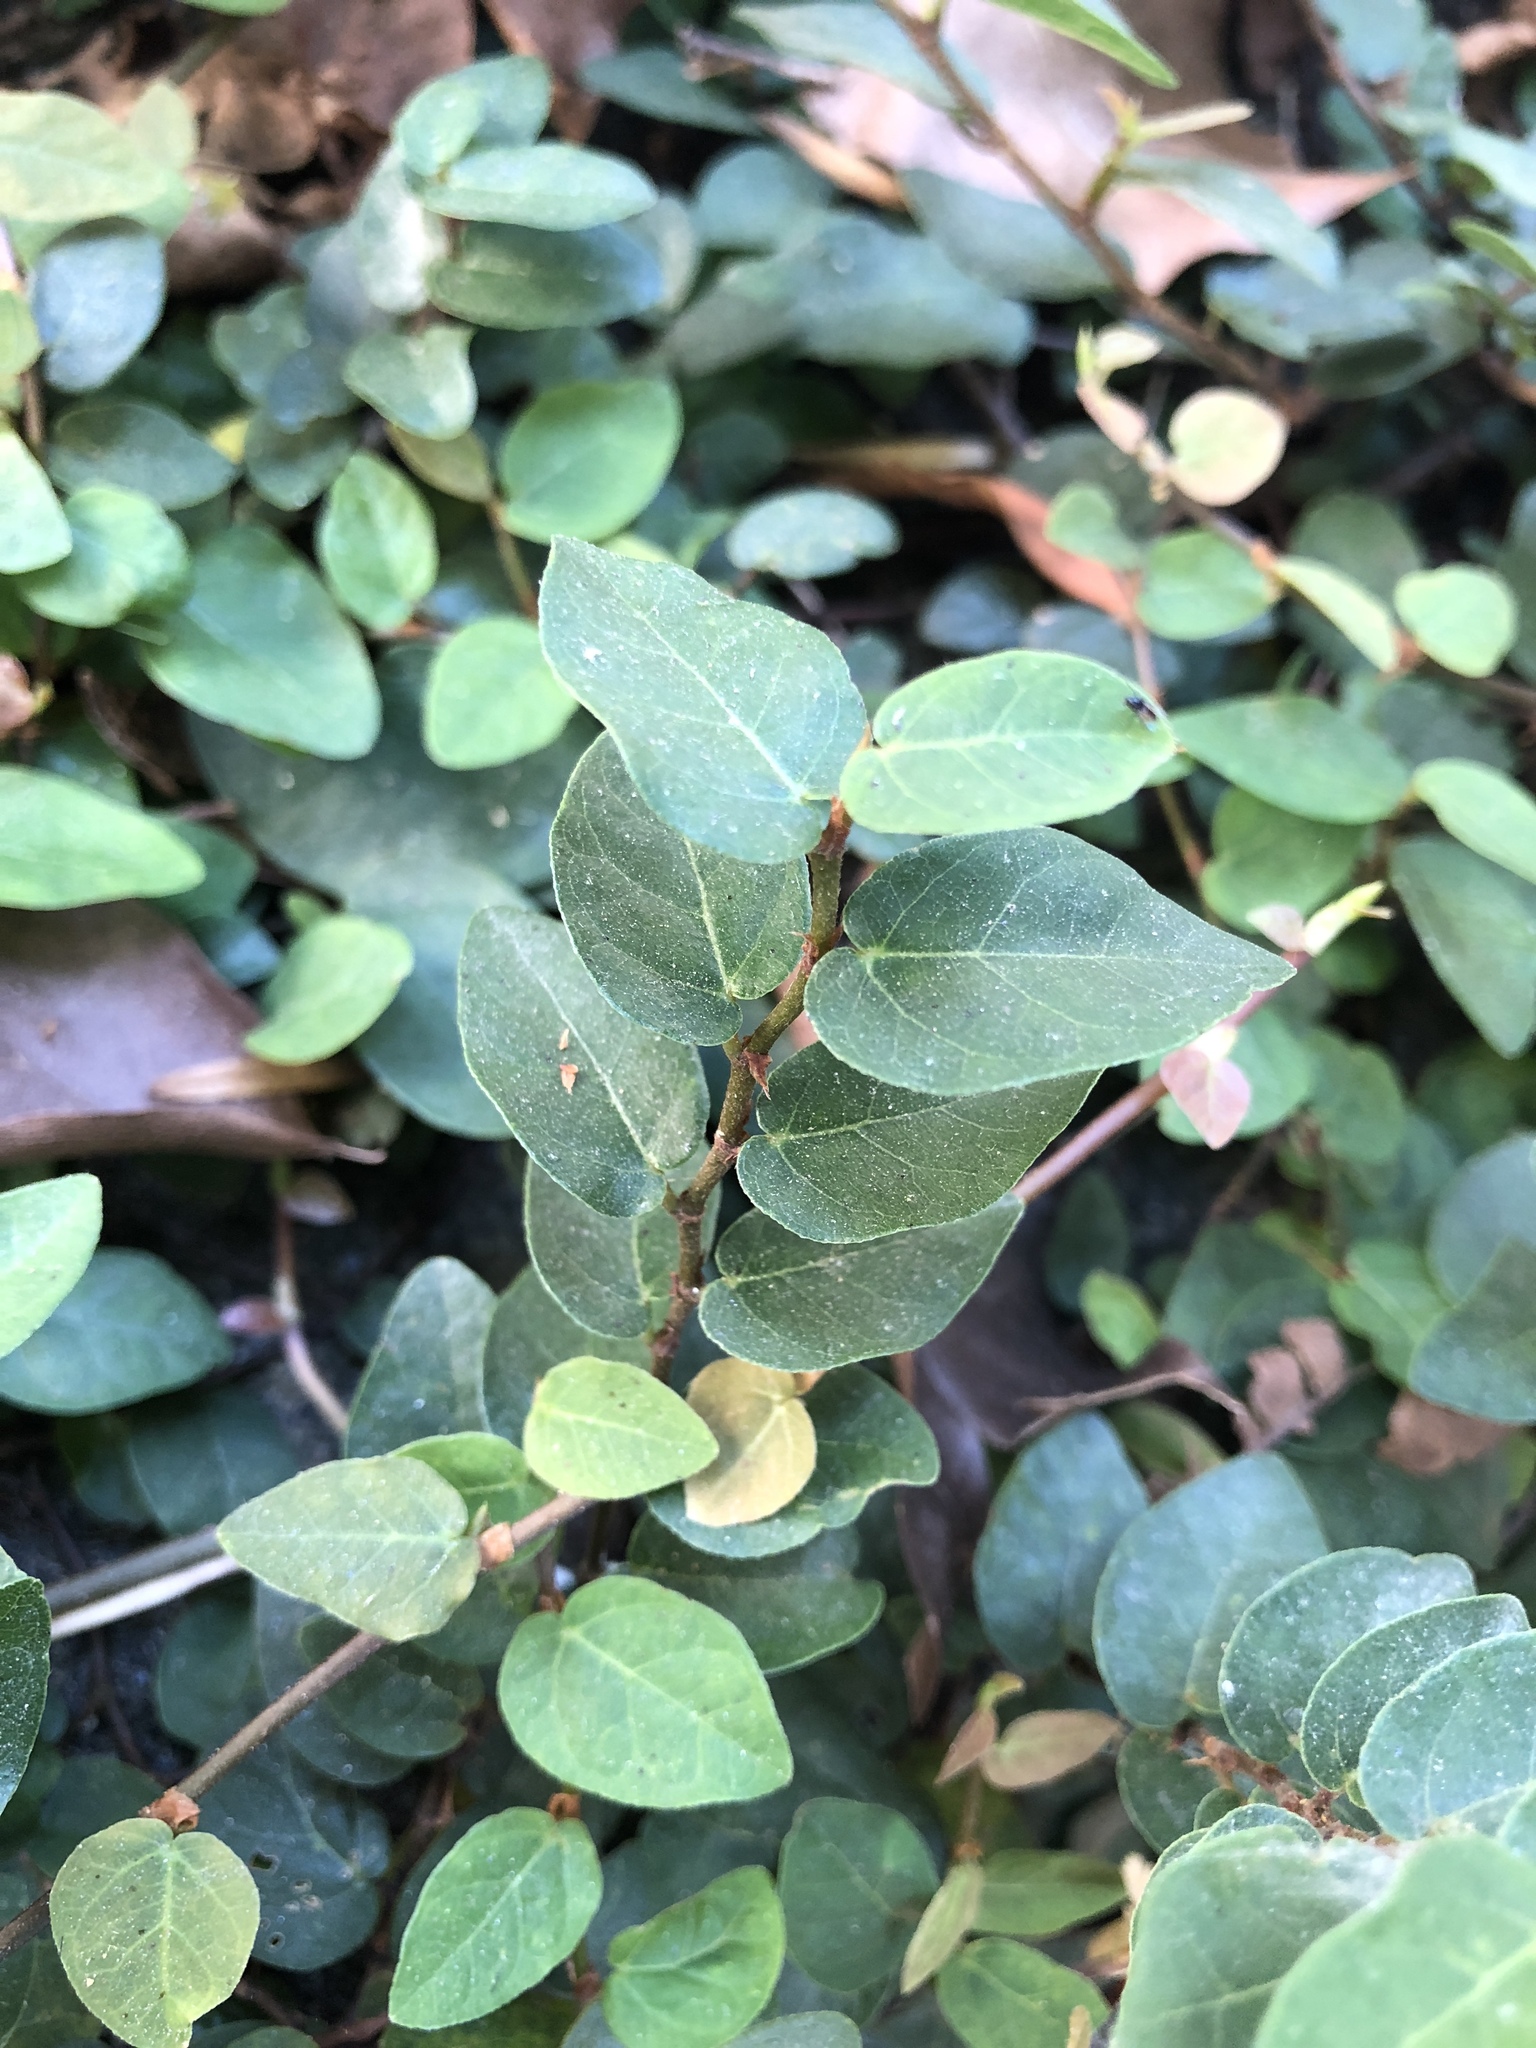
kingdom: Plantae
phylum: Tracheophyta
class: Magnoliopsida
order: Rosales
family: Moraceae
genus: Ficus
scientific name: Ficus pumila
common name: Climbingfig
